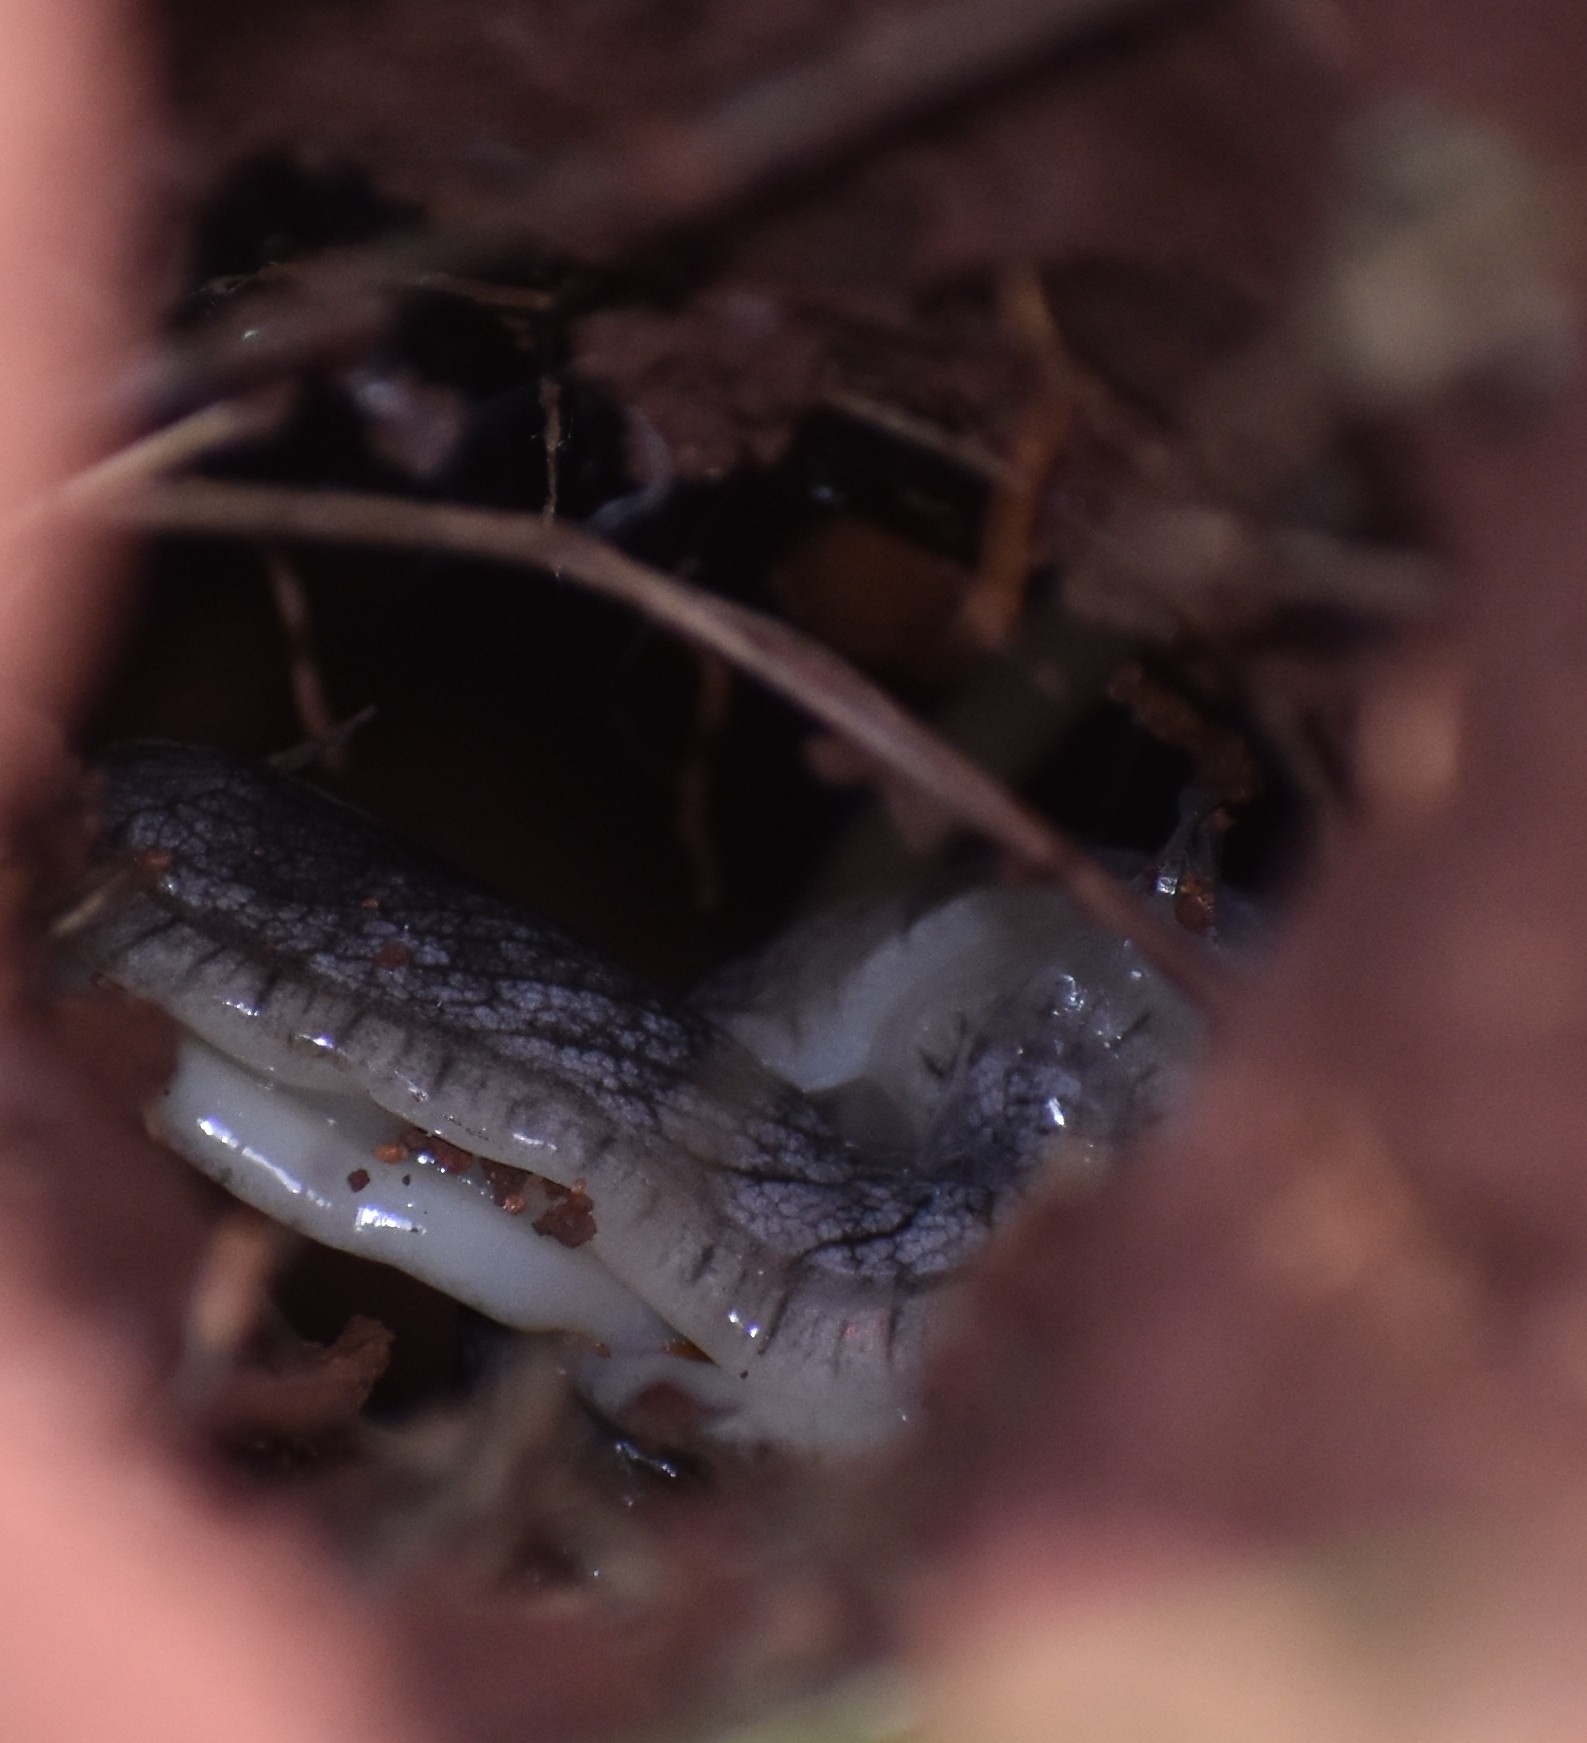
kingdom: Animalia
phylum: Mollusca
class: Gastropoda
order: Stylommatophora
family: Urocyclidae
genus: Urocyclus
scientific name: Urocyclus kirkii
